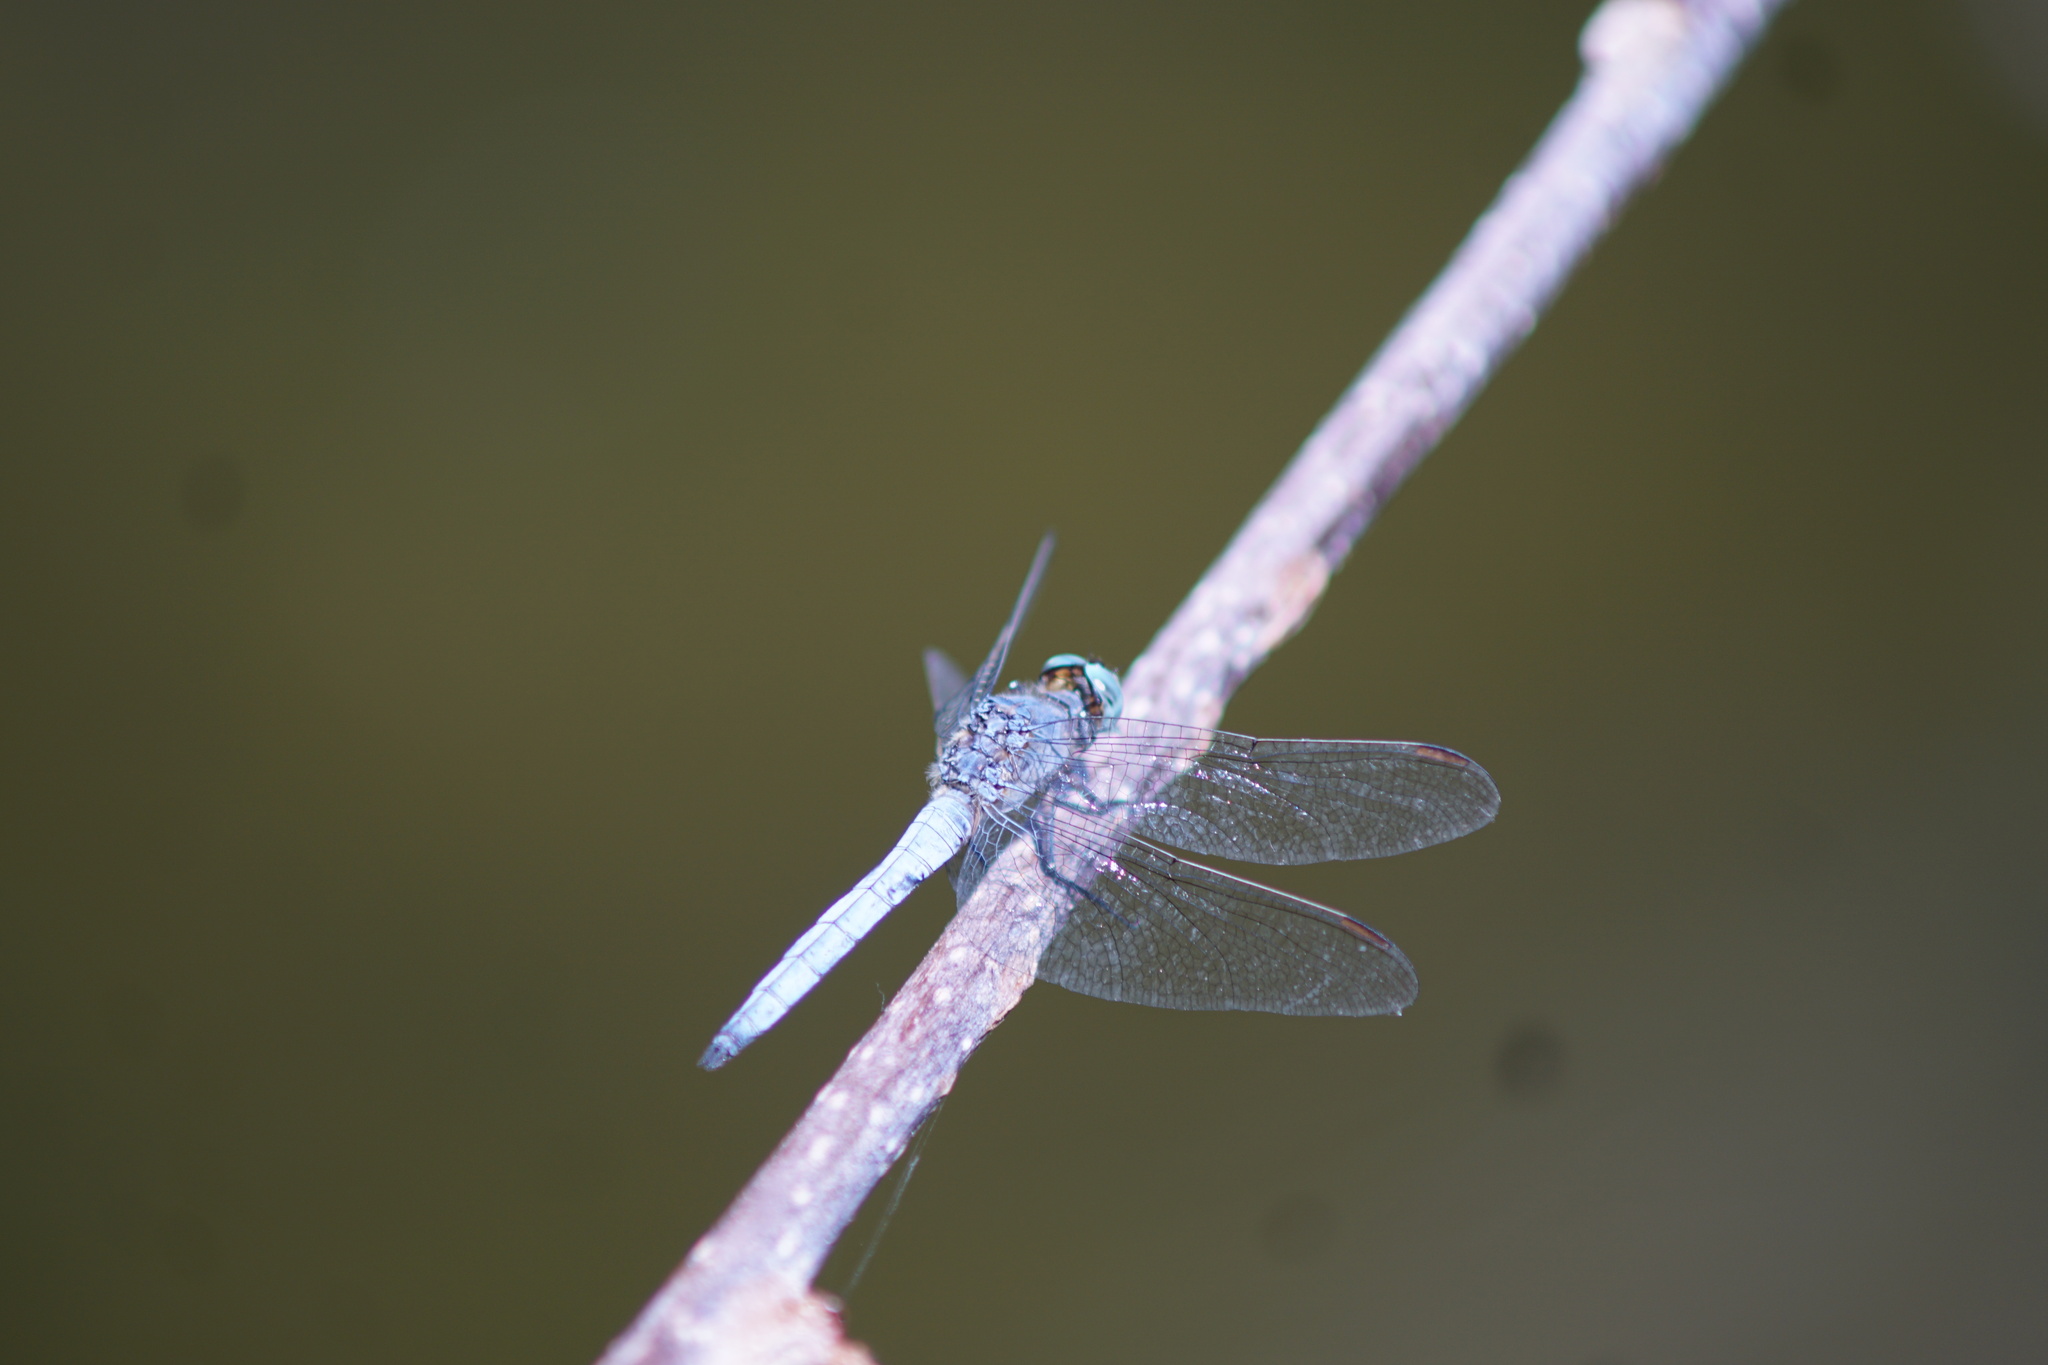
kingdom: Animalia
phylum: Arthropoda
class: Insecta
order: Odonata
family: Libellulidae
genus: Orthetrum
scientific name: Orthetrum coerulescens
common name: Keeled skimmer
